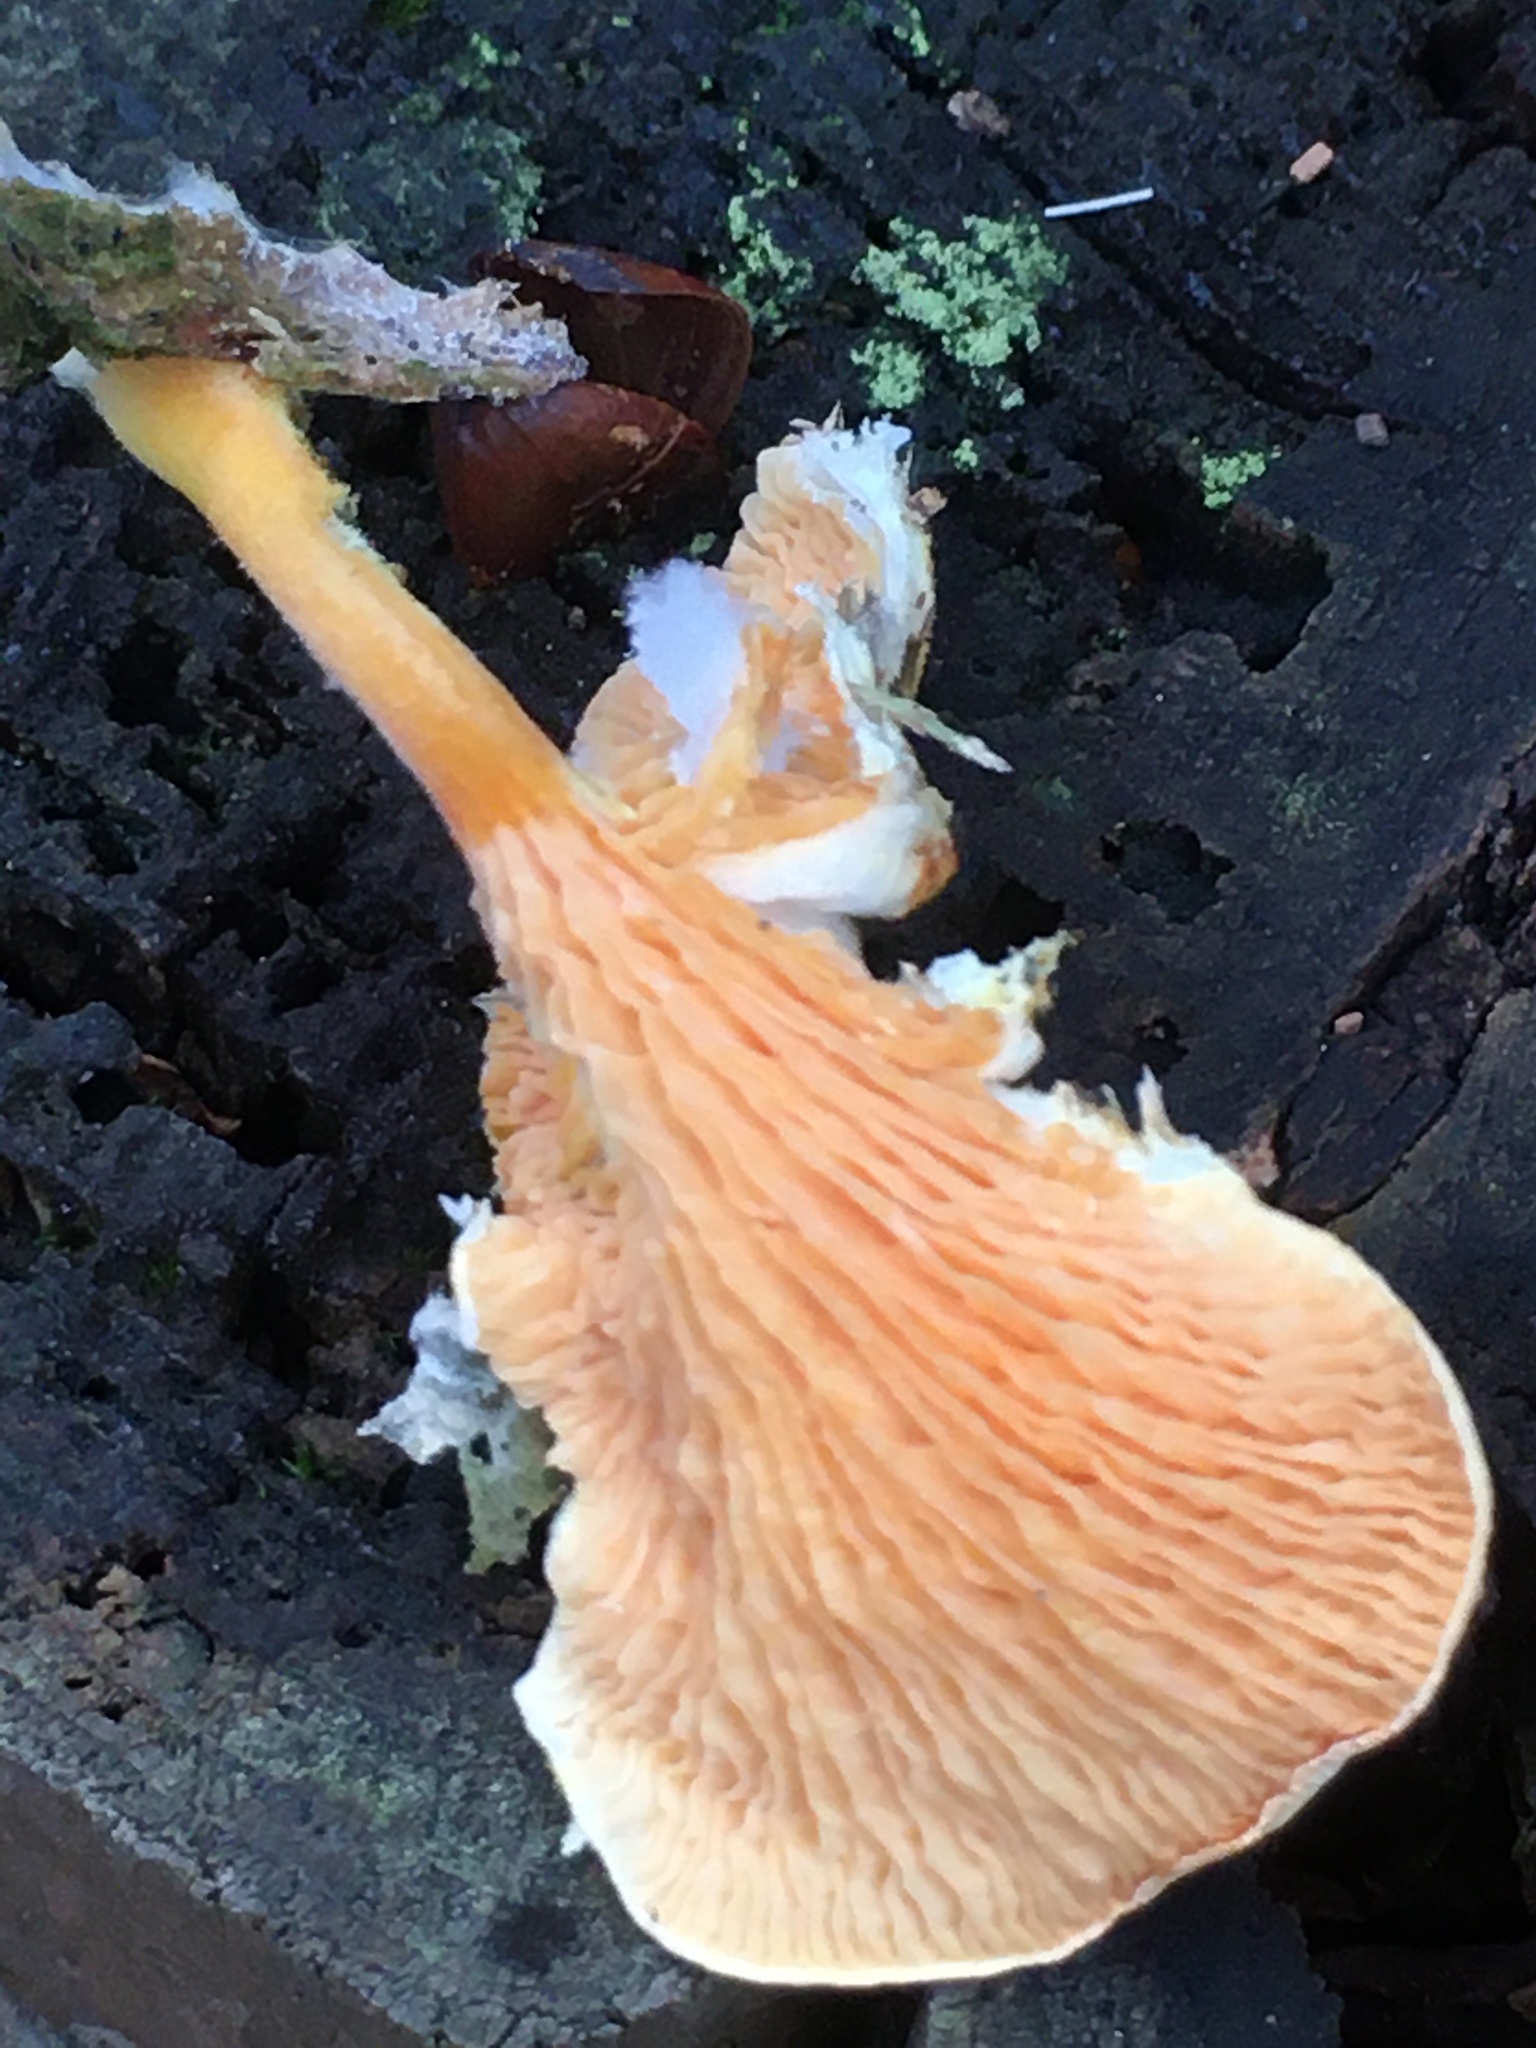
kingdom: Fungi
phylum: Basidiomycota
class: Agaricomycetes
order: Boletales
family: Hygrophoropsidaceae
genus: Hygrophoropsis
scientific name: Hygrophoropsis aurantiaca
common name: False chanterelle
